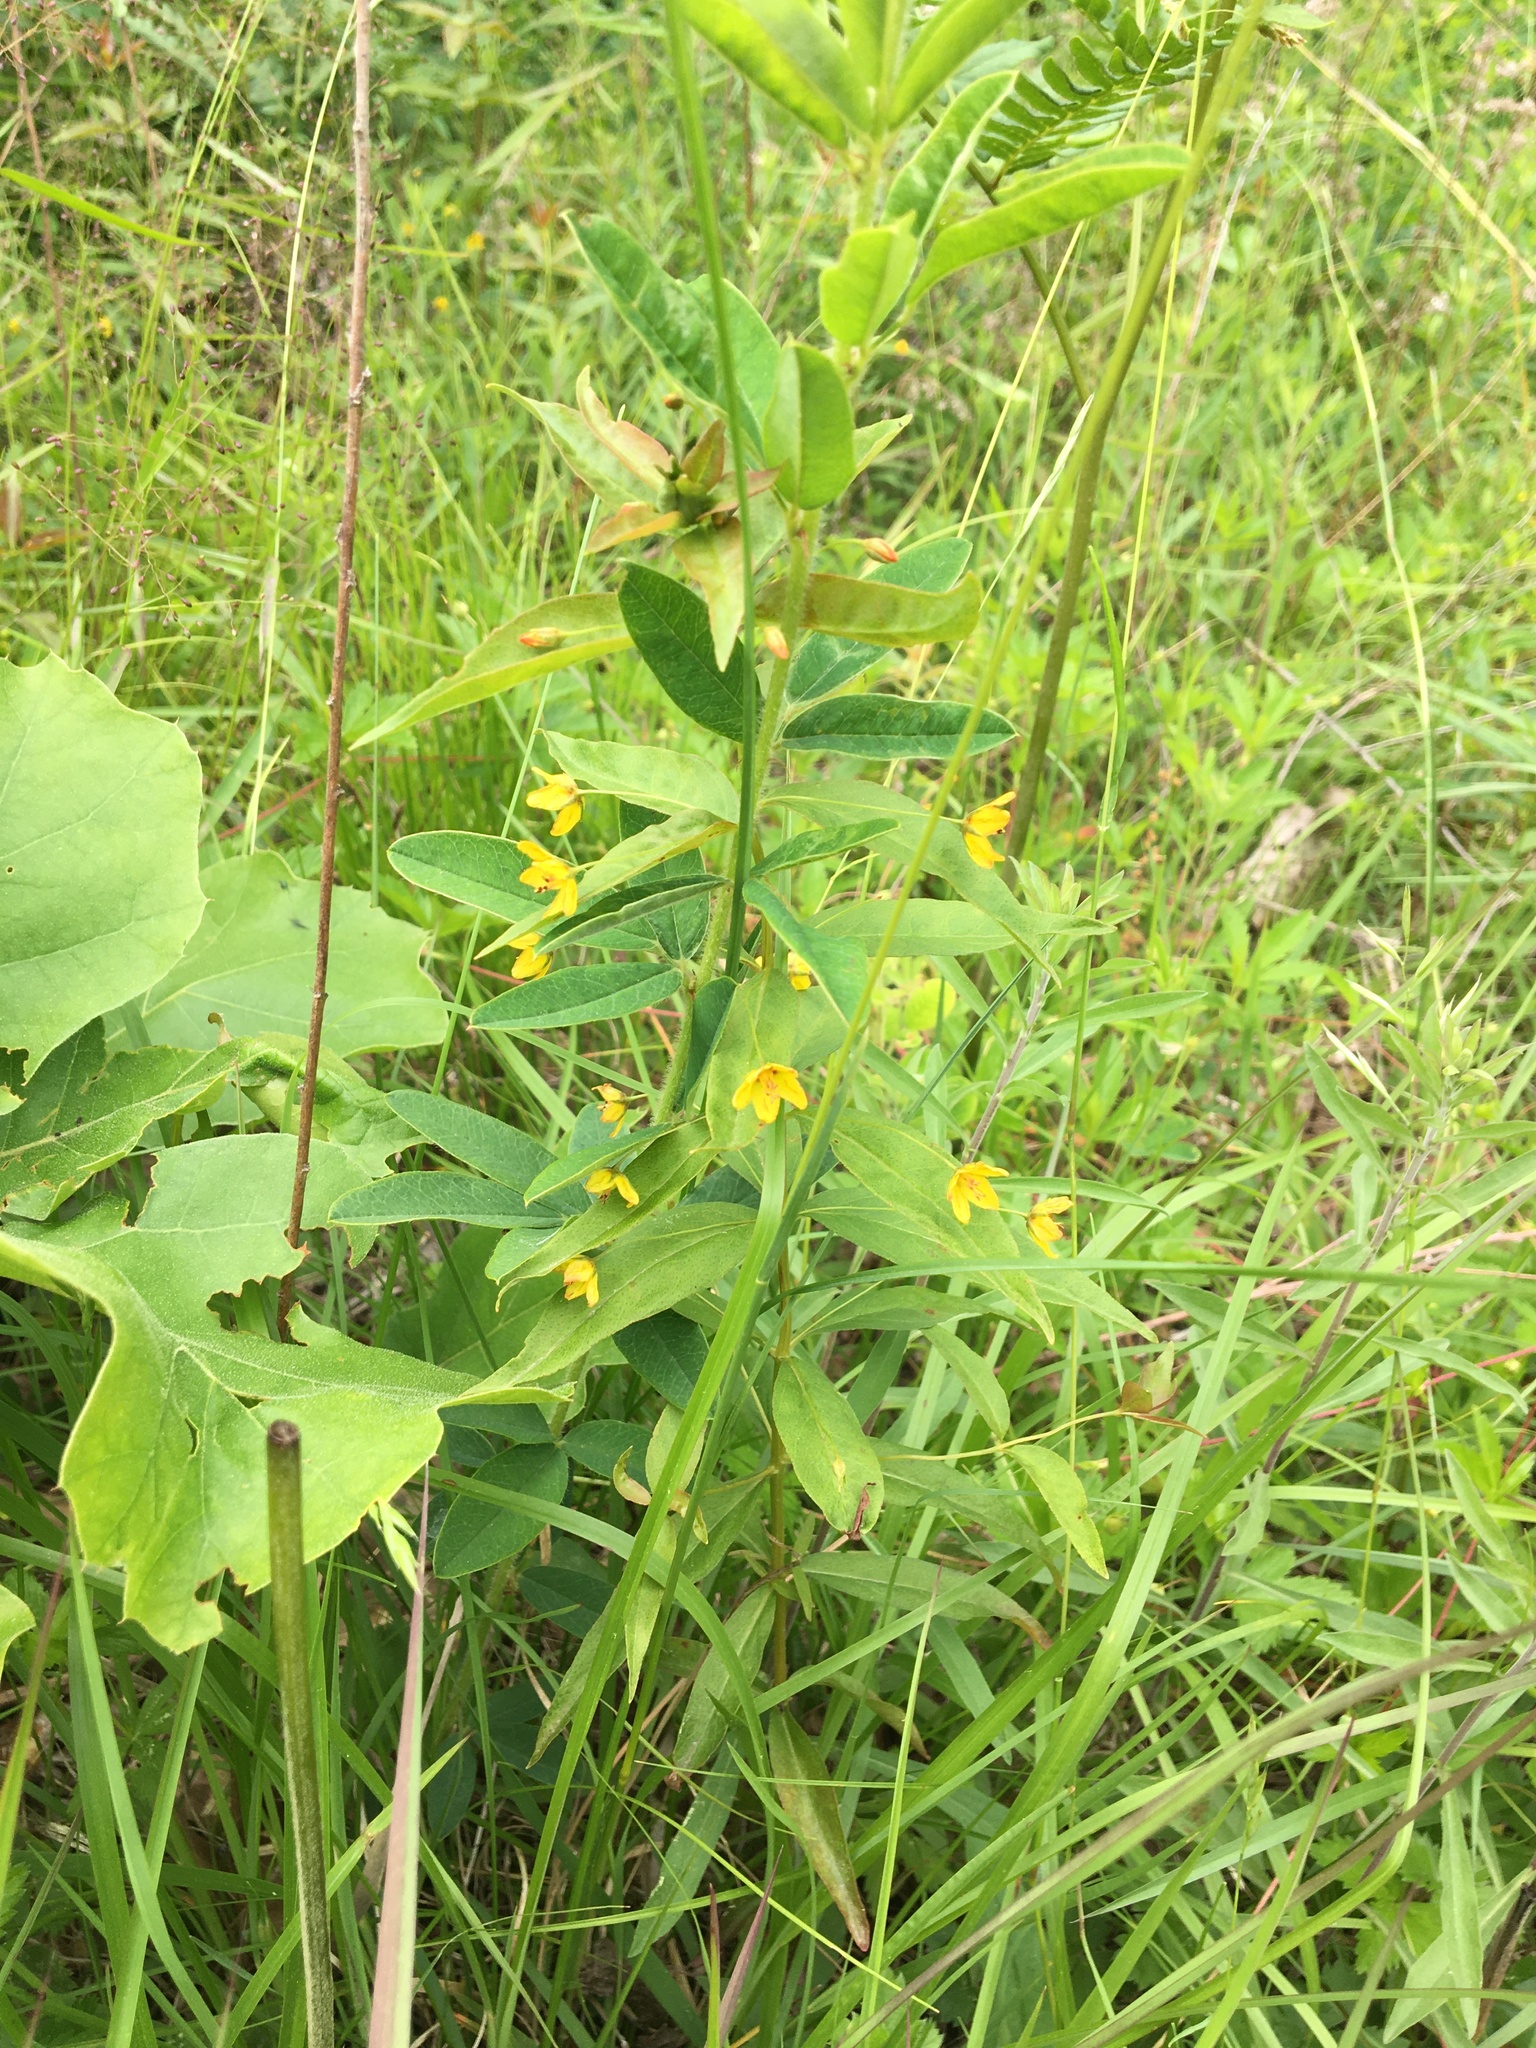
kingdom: Plantae
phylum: Tracheophyta
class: Magnoliopsida
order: Ericales
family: Primulaceae
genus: Lysimachia
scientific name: Lysimachia quadrifolia
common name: Whorled loosestrife
